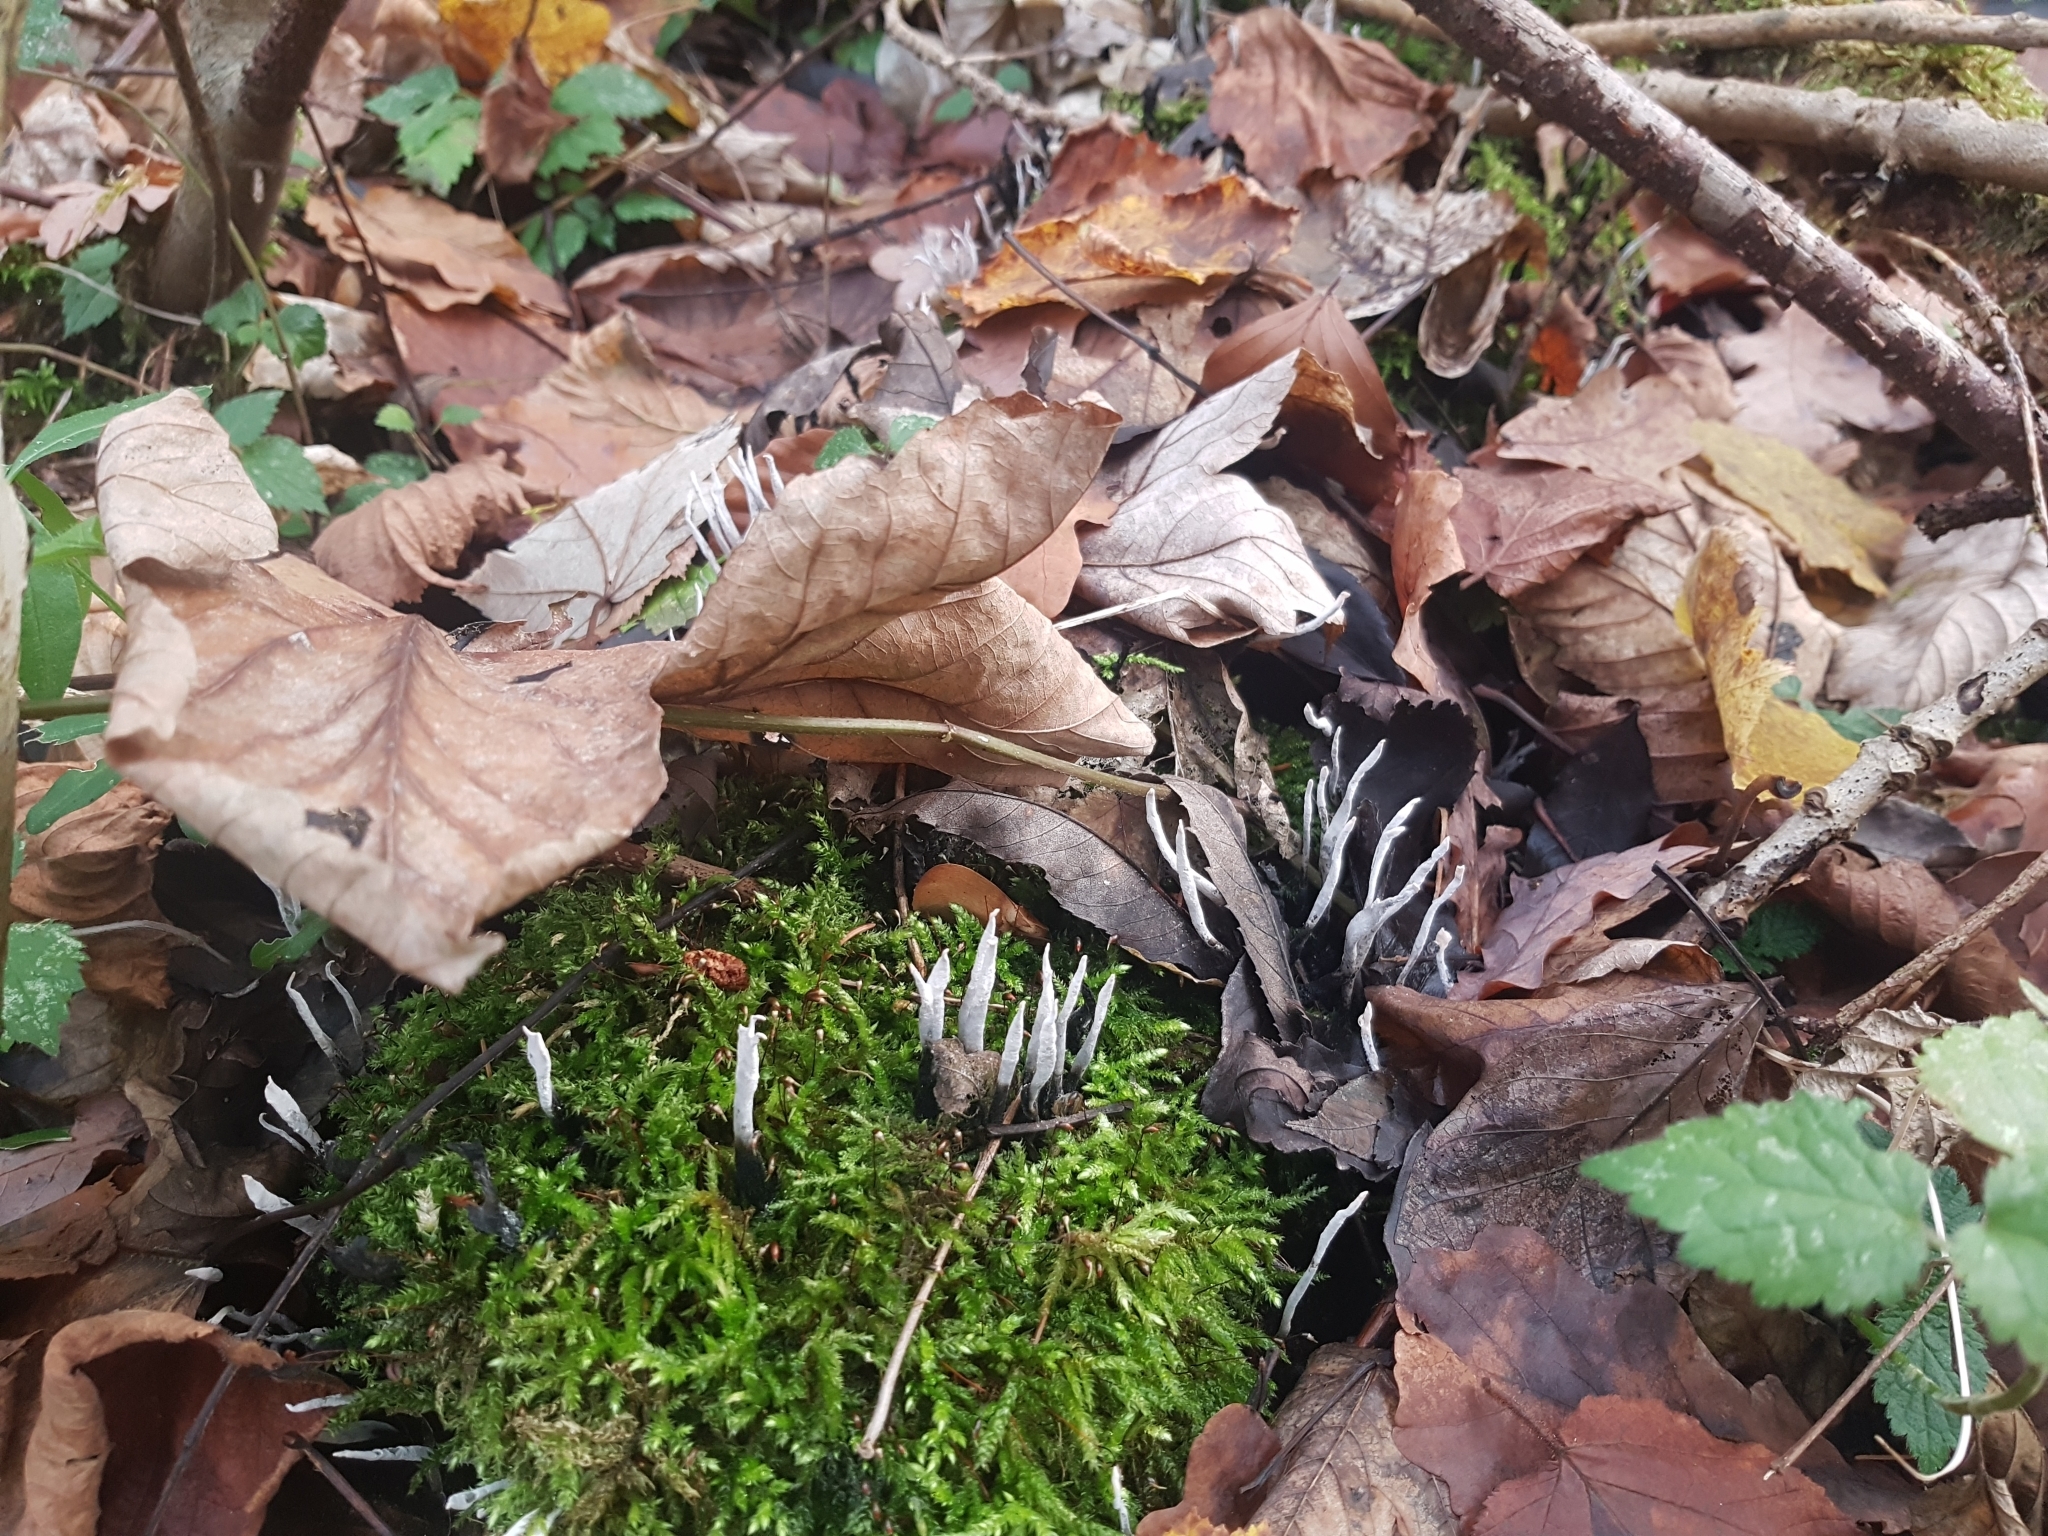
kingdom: Fungi
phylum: Ascomycota
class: Sordariomycetes
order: Xylariales
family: Xylariaceae
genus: Xylaria
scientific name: Xylaria hypoxylon
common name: Candle-snuff fungus
